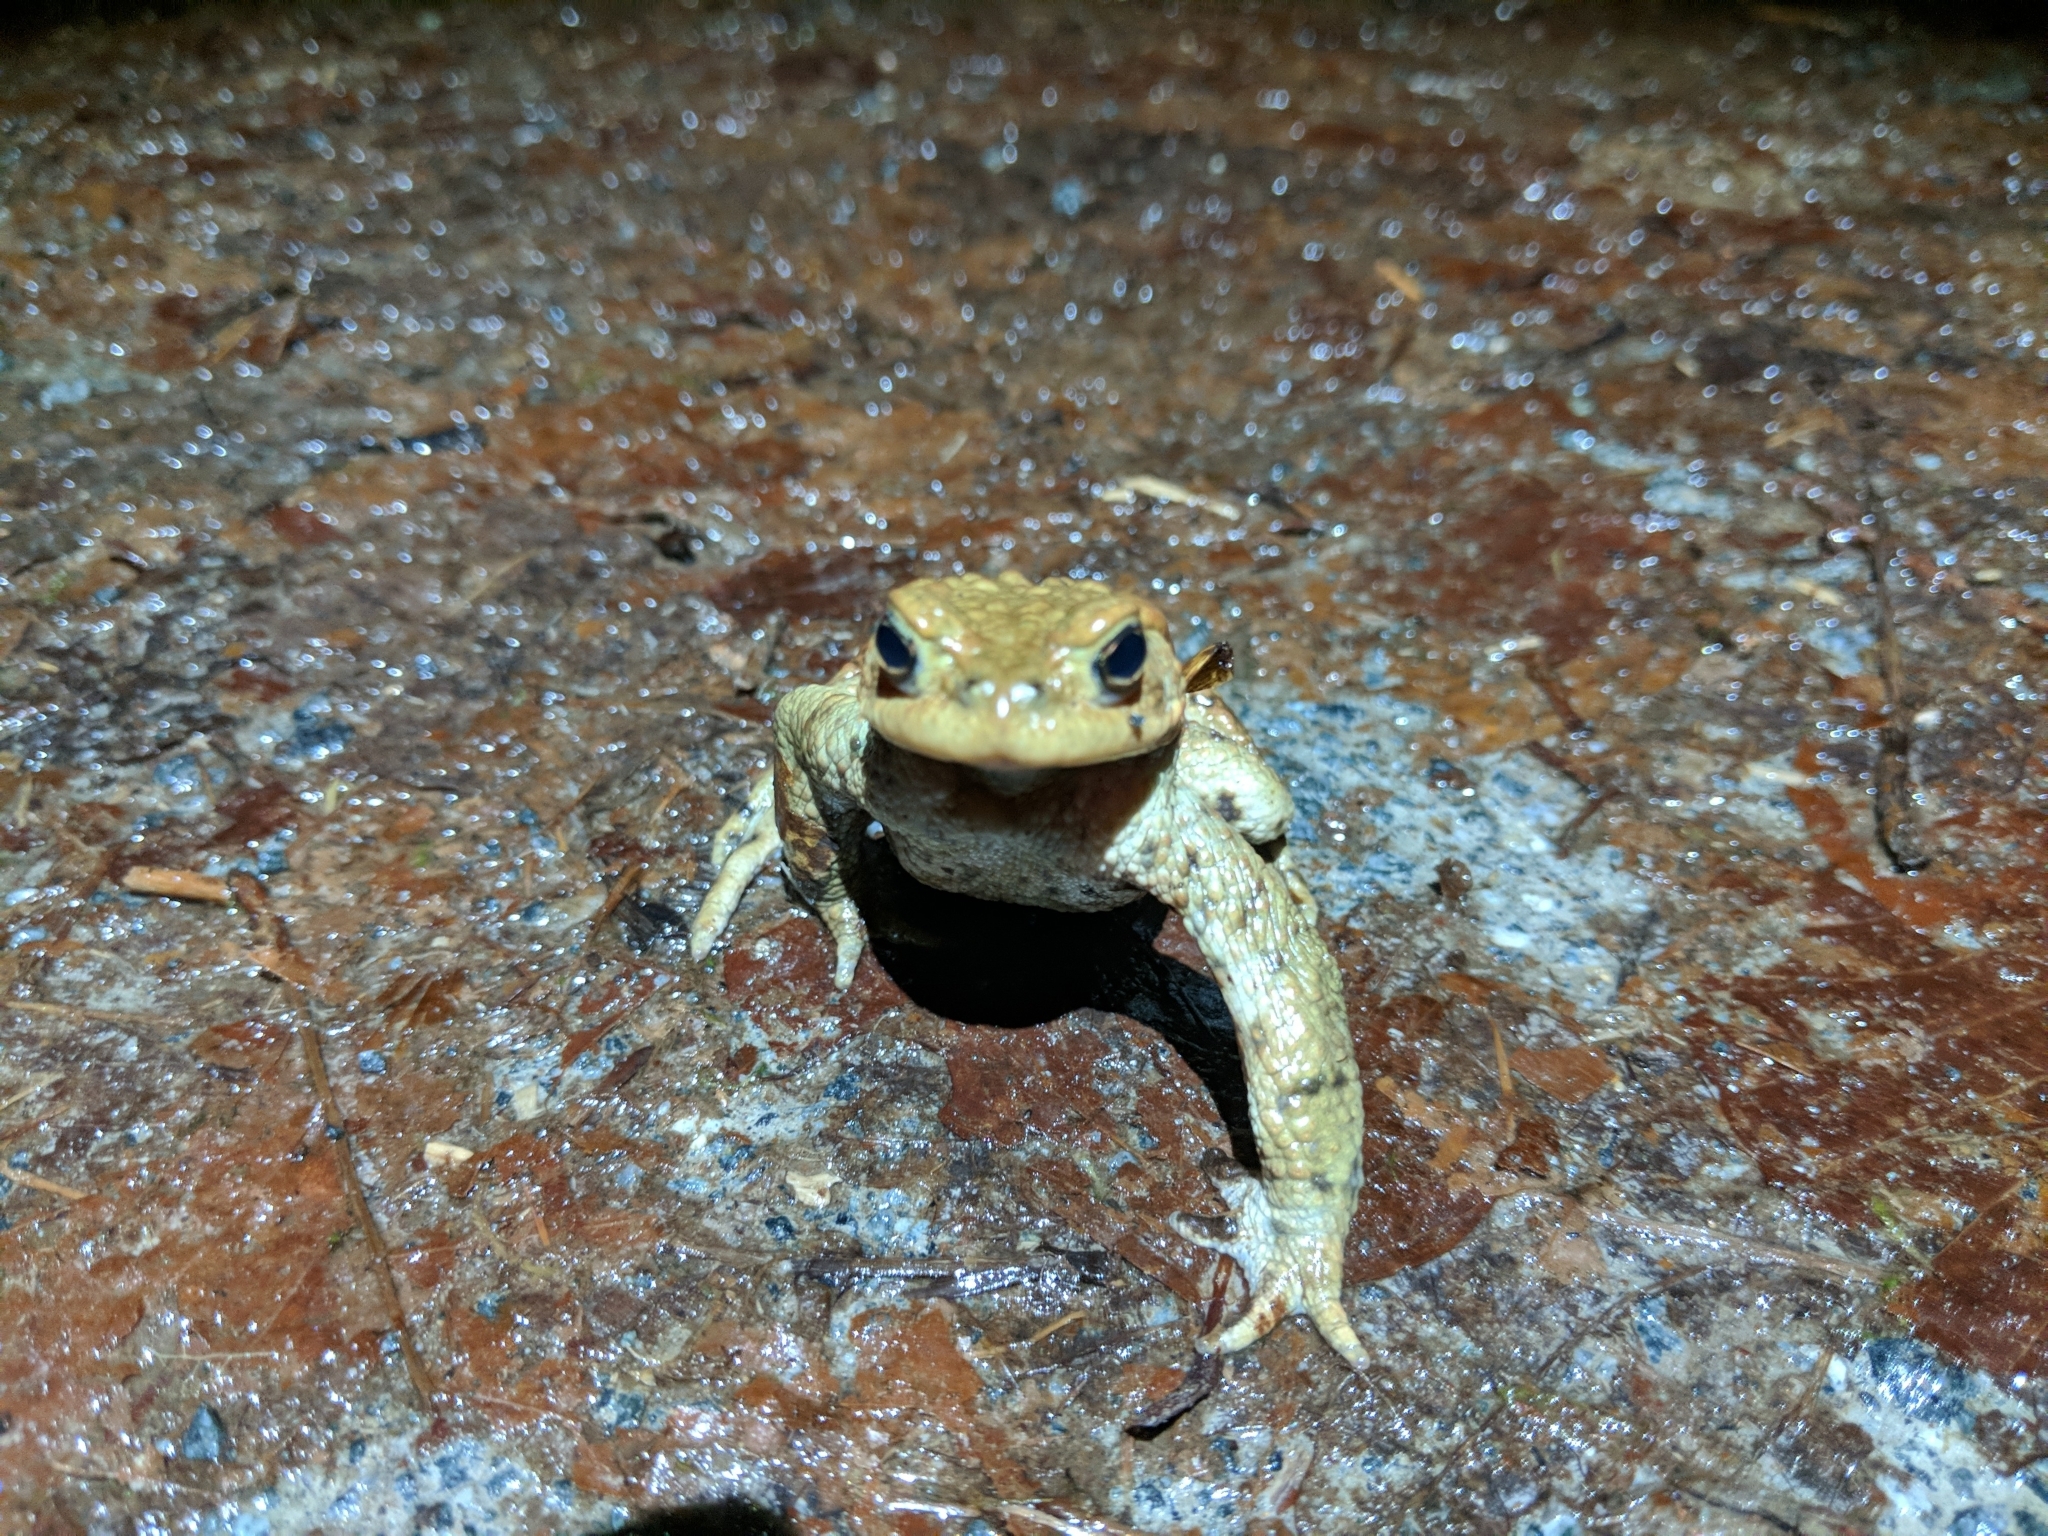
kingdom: Animalia
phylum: Chordata
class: Amphibia
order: Anura
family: Bufonidae
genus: Bufo
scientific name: Bufo bufo
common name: Common toad
